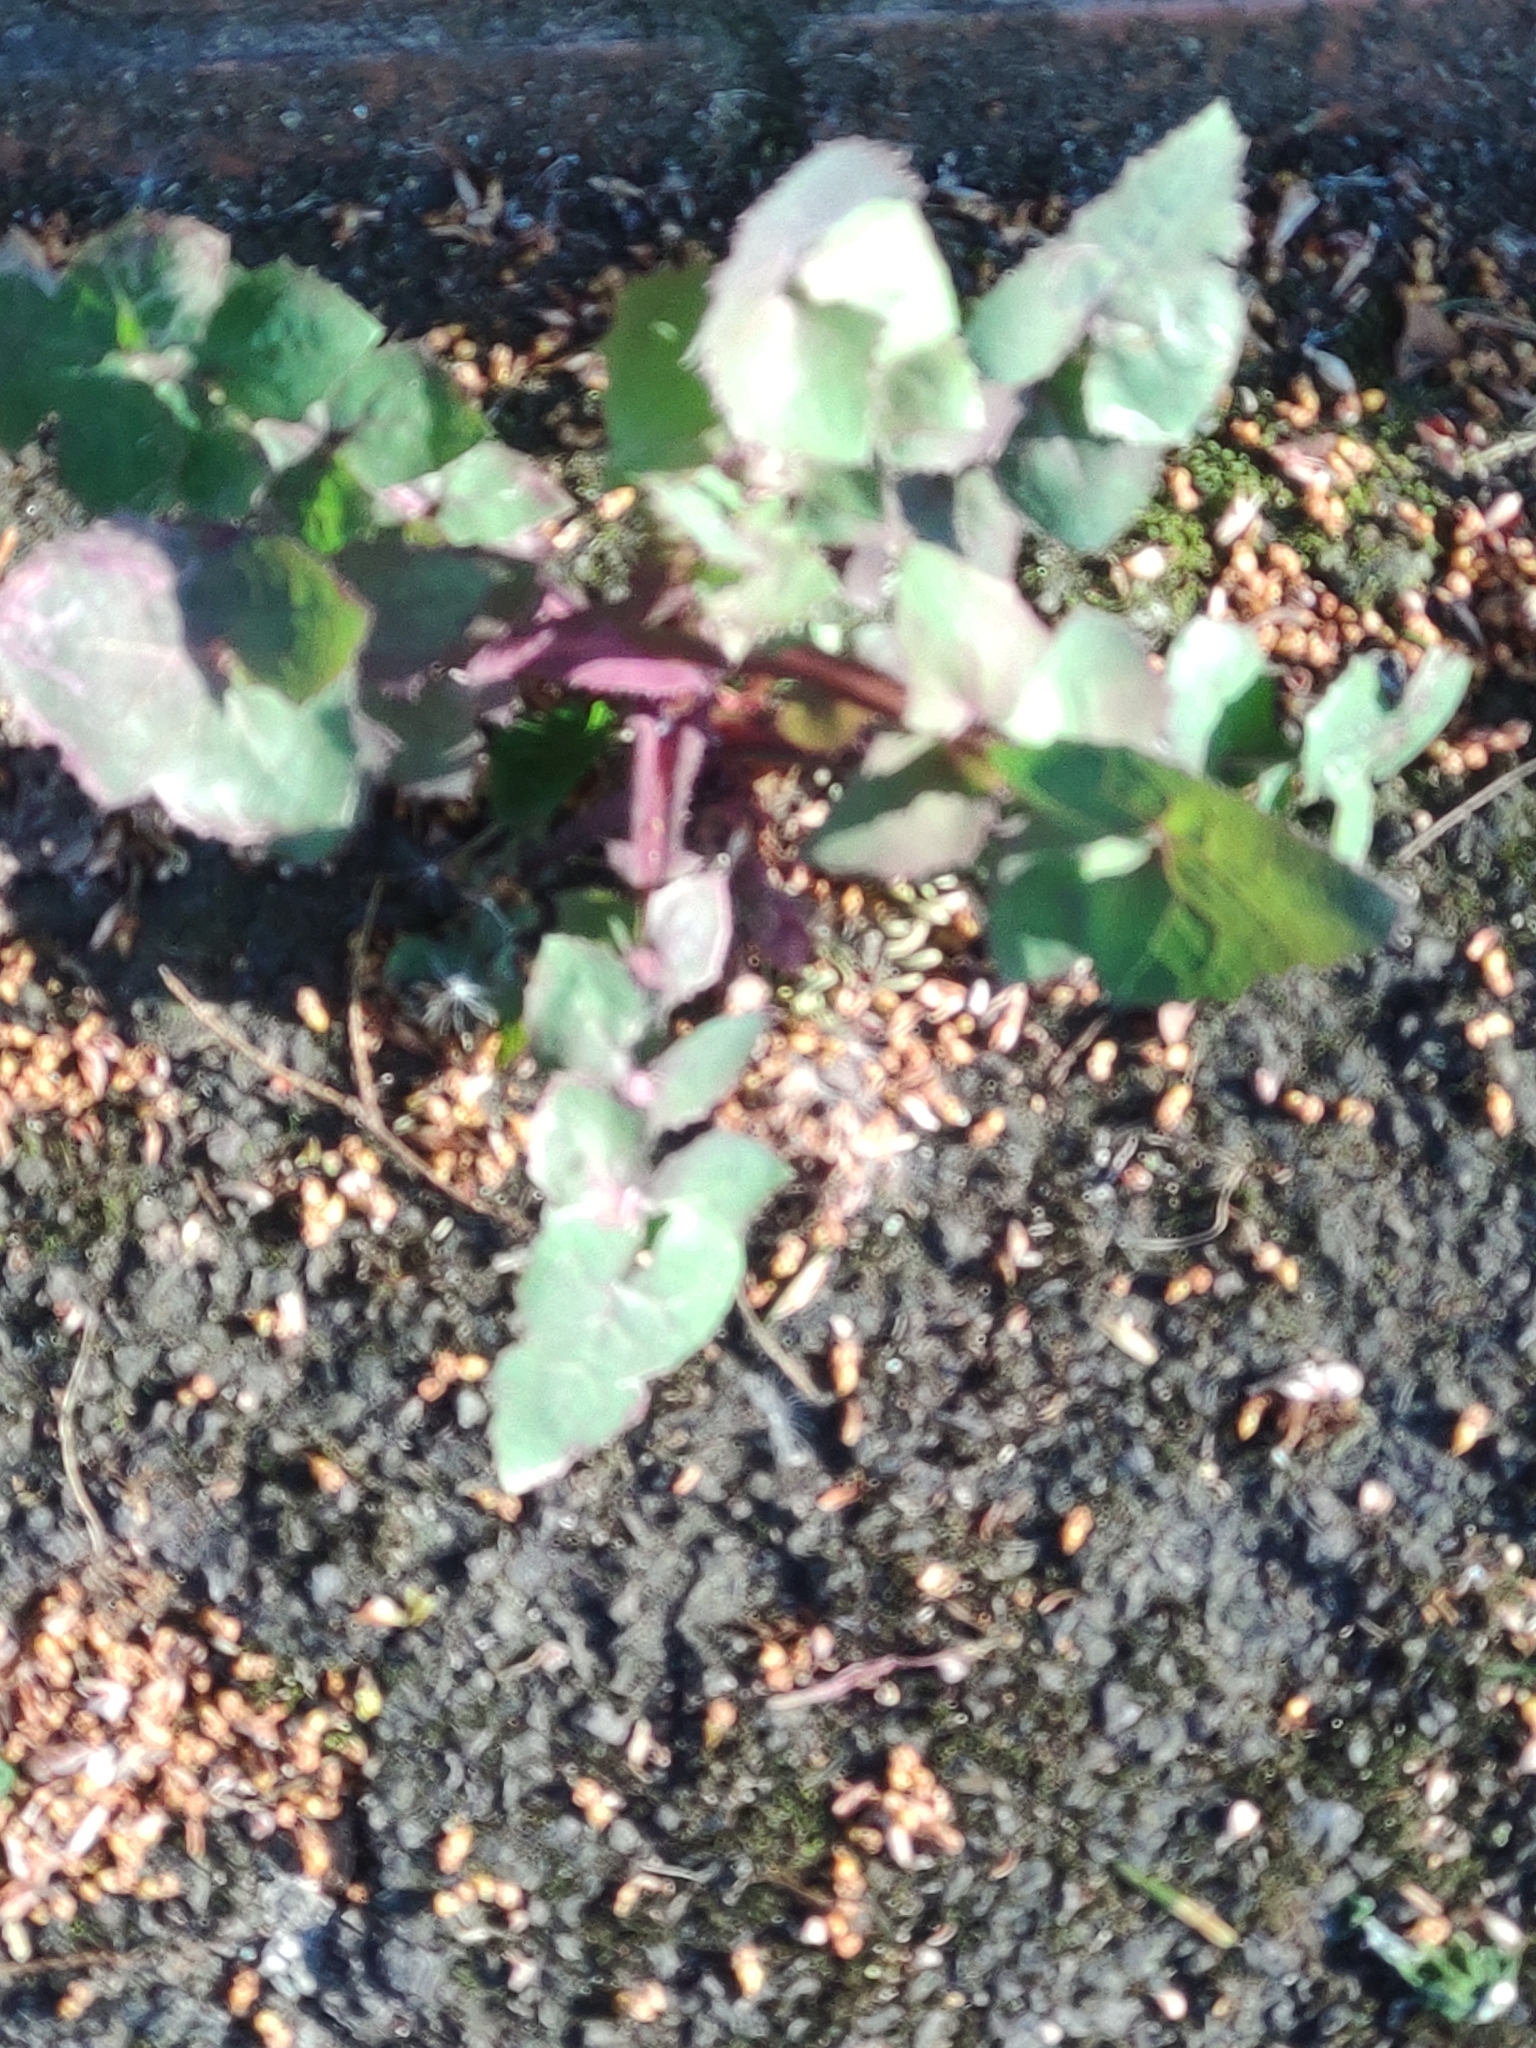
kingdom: Plantae
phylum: Tracheophyta
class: Magnoliopsida
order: Asterales
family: Asteraceae
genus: Sonchus
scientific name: Sonchus oleraceus
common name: Common sowthistle
